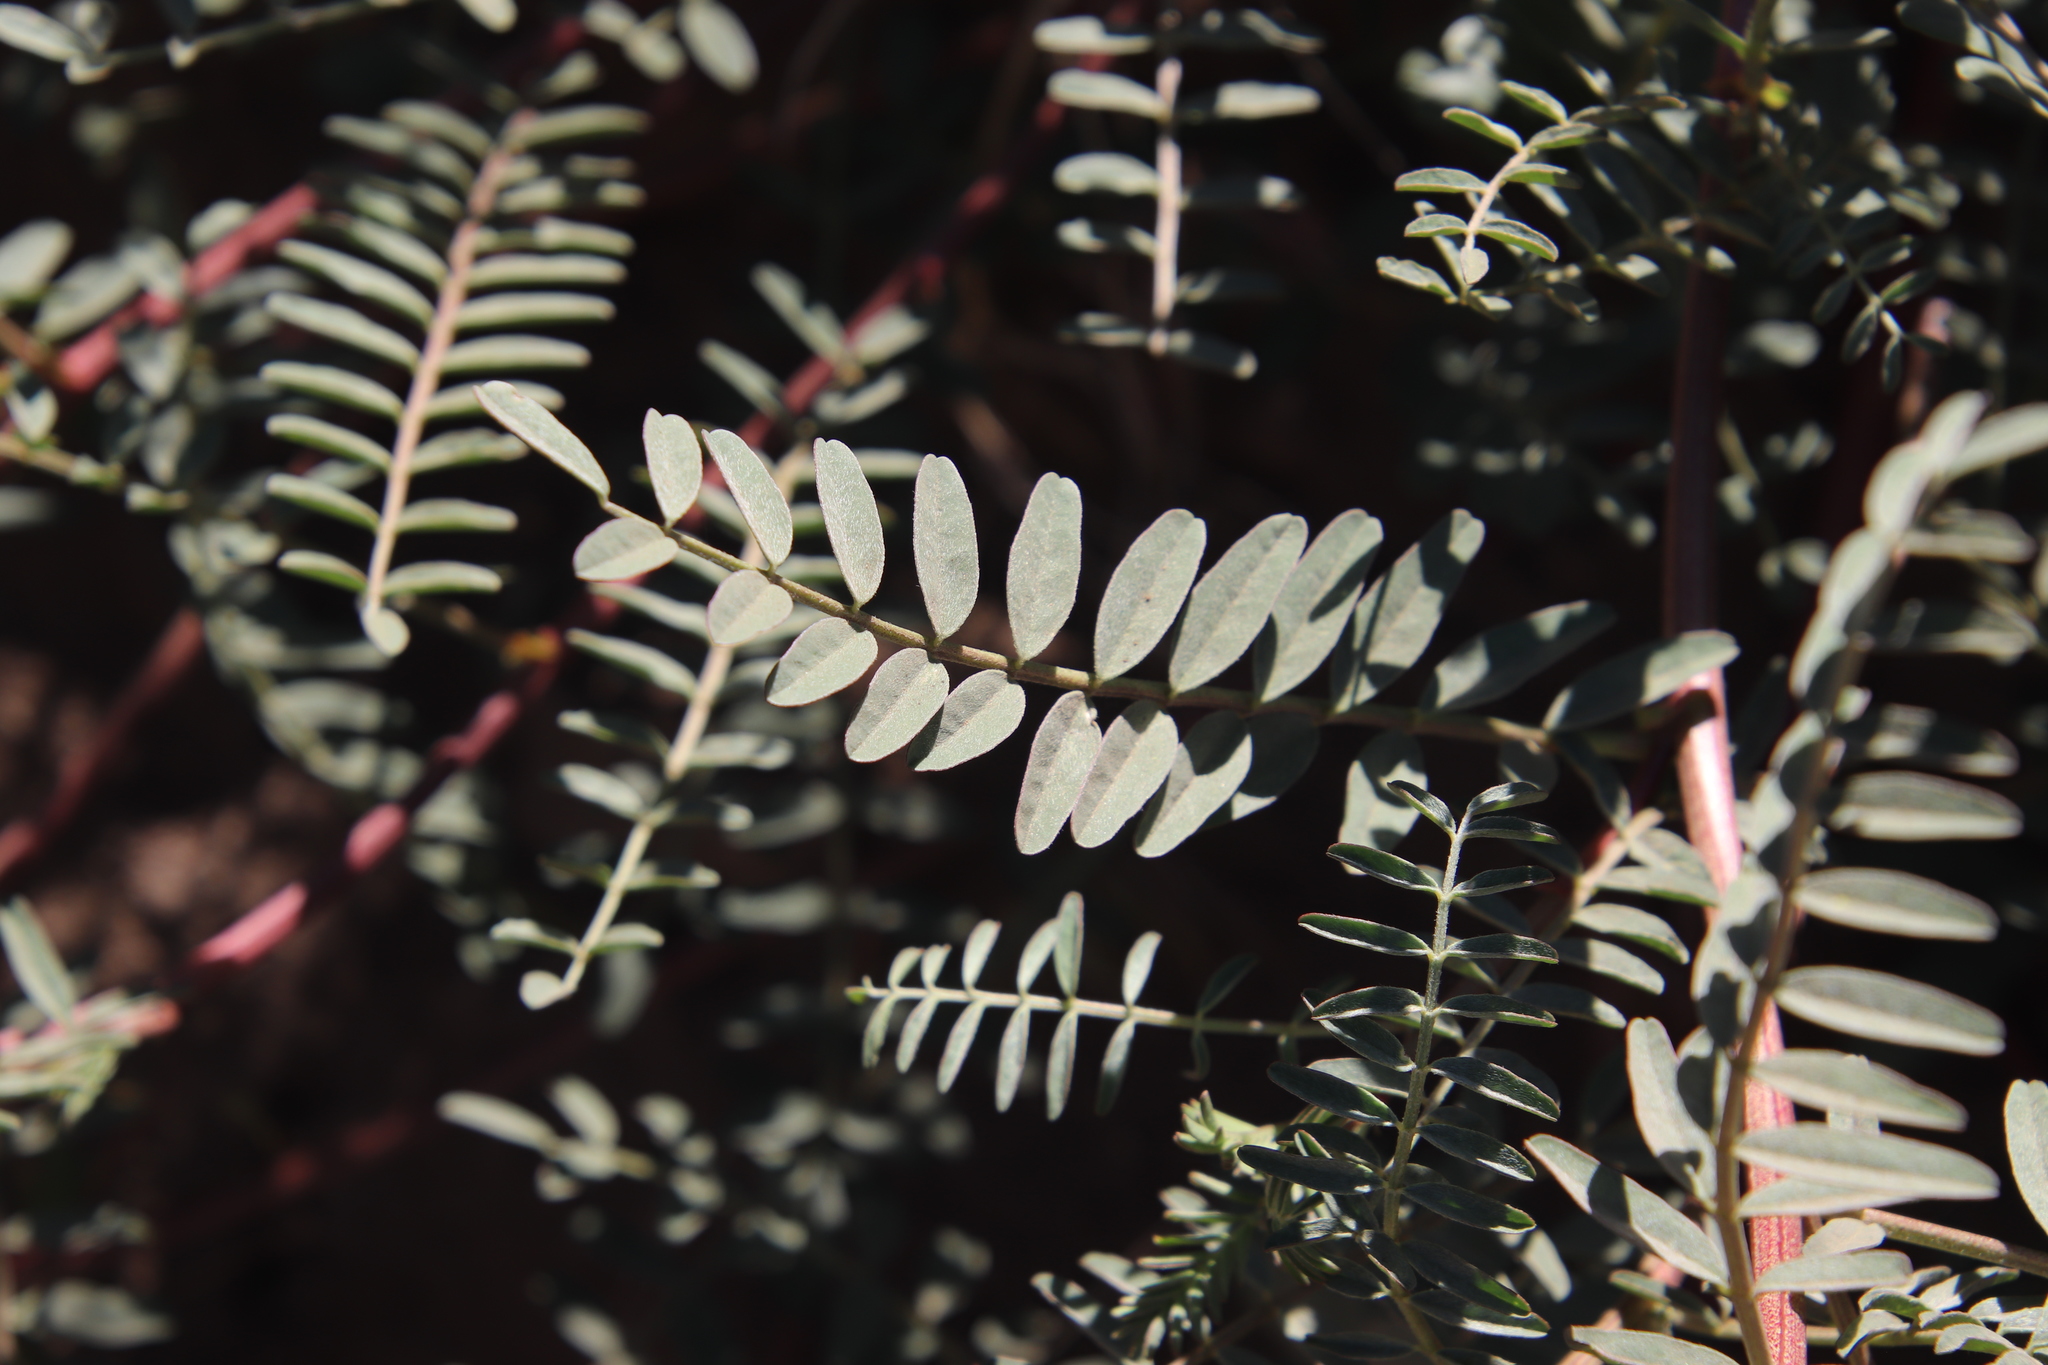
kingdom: Plantae
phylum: Tracheophyta
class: Magnoliopsida
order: Fabales
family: Fabaceae
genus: Astragalus
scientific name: Astragalus douglasii
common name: Jacumba milkvetch
